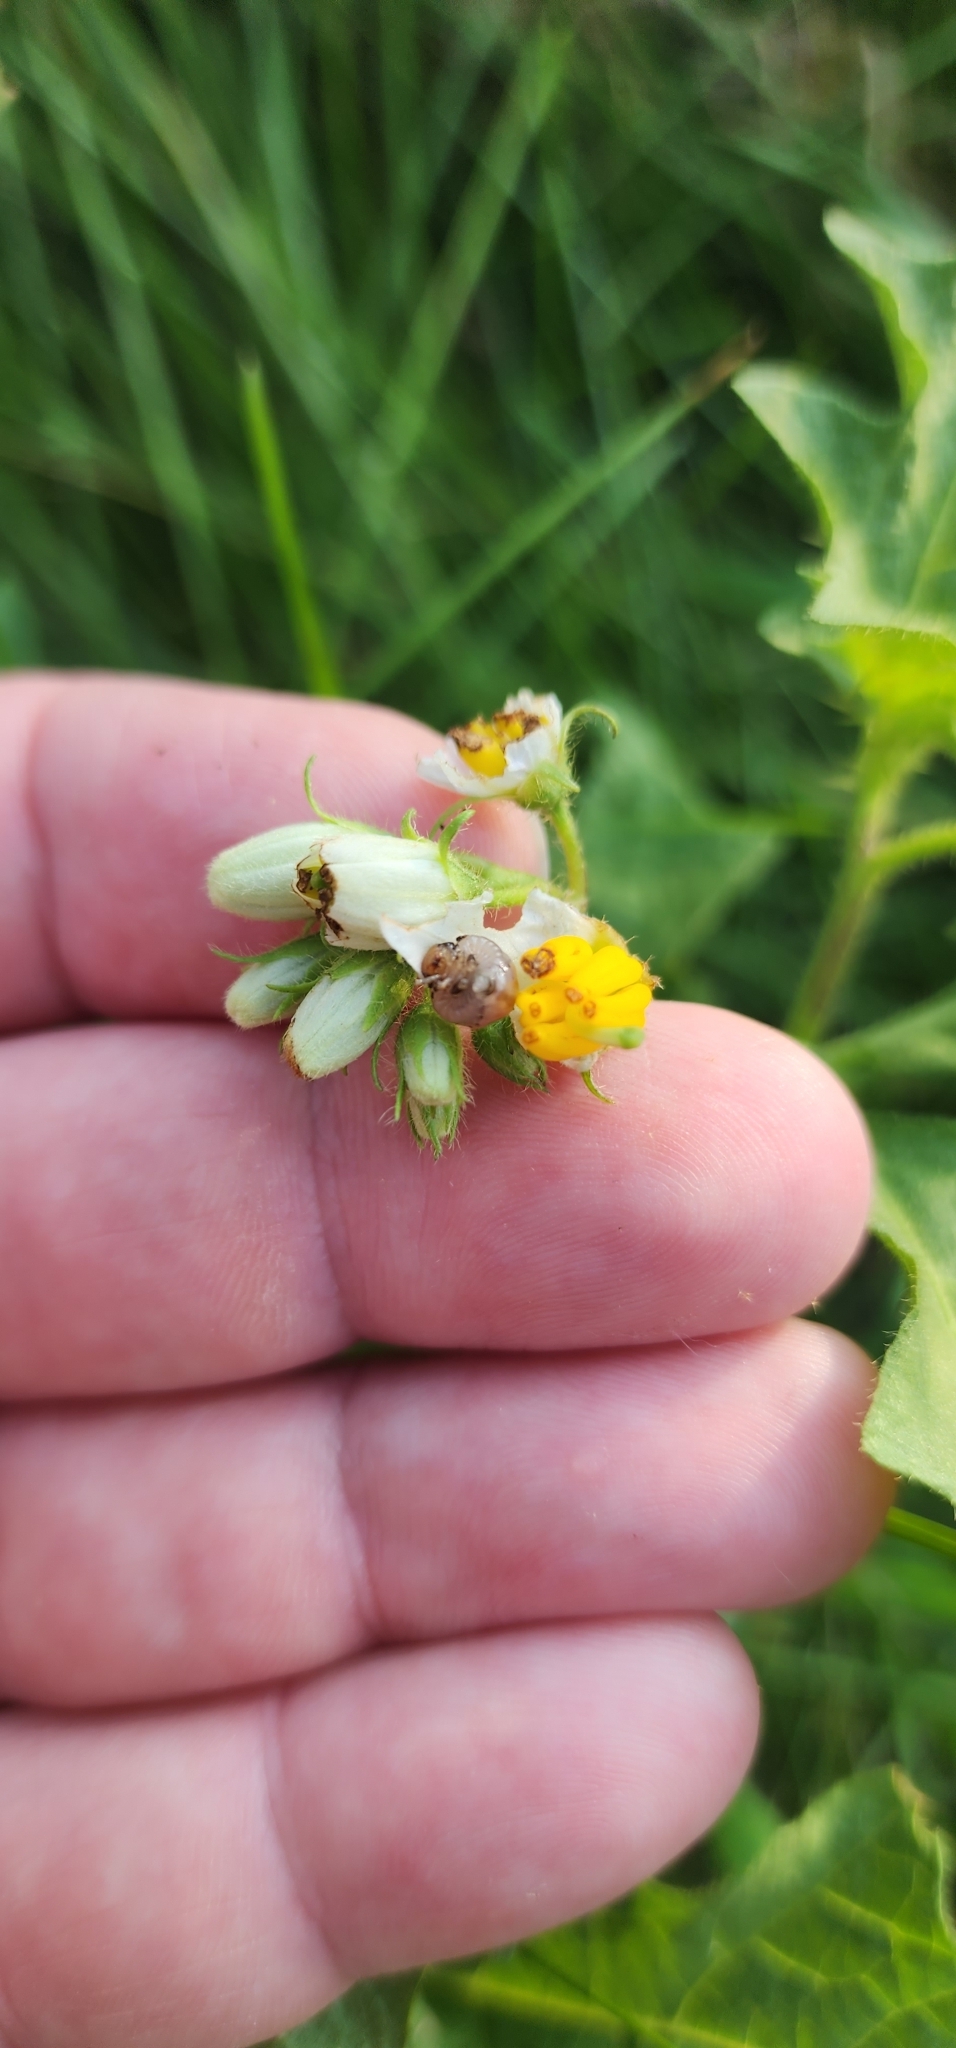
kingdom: Plantae
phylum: Tracheophyta
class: Magnoliopsida
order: Solanales
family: Solanaceae
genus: Solanum
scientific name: Solanum carolinense
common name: Horse-nettle
